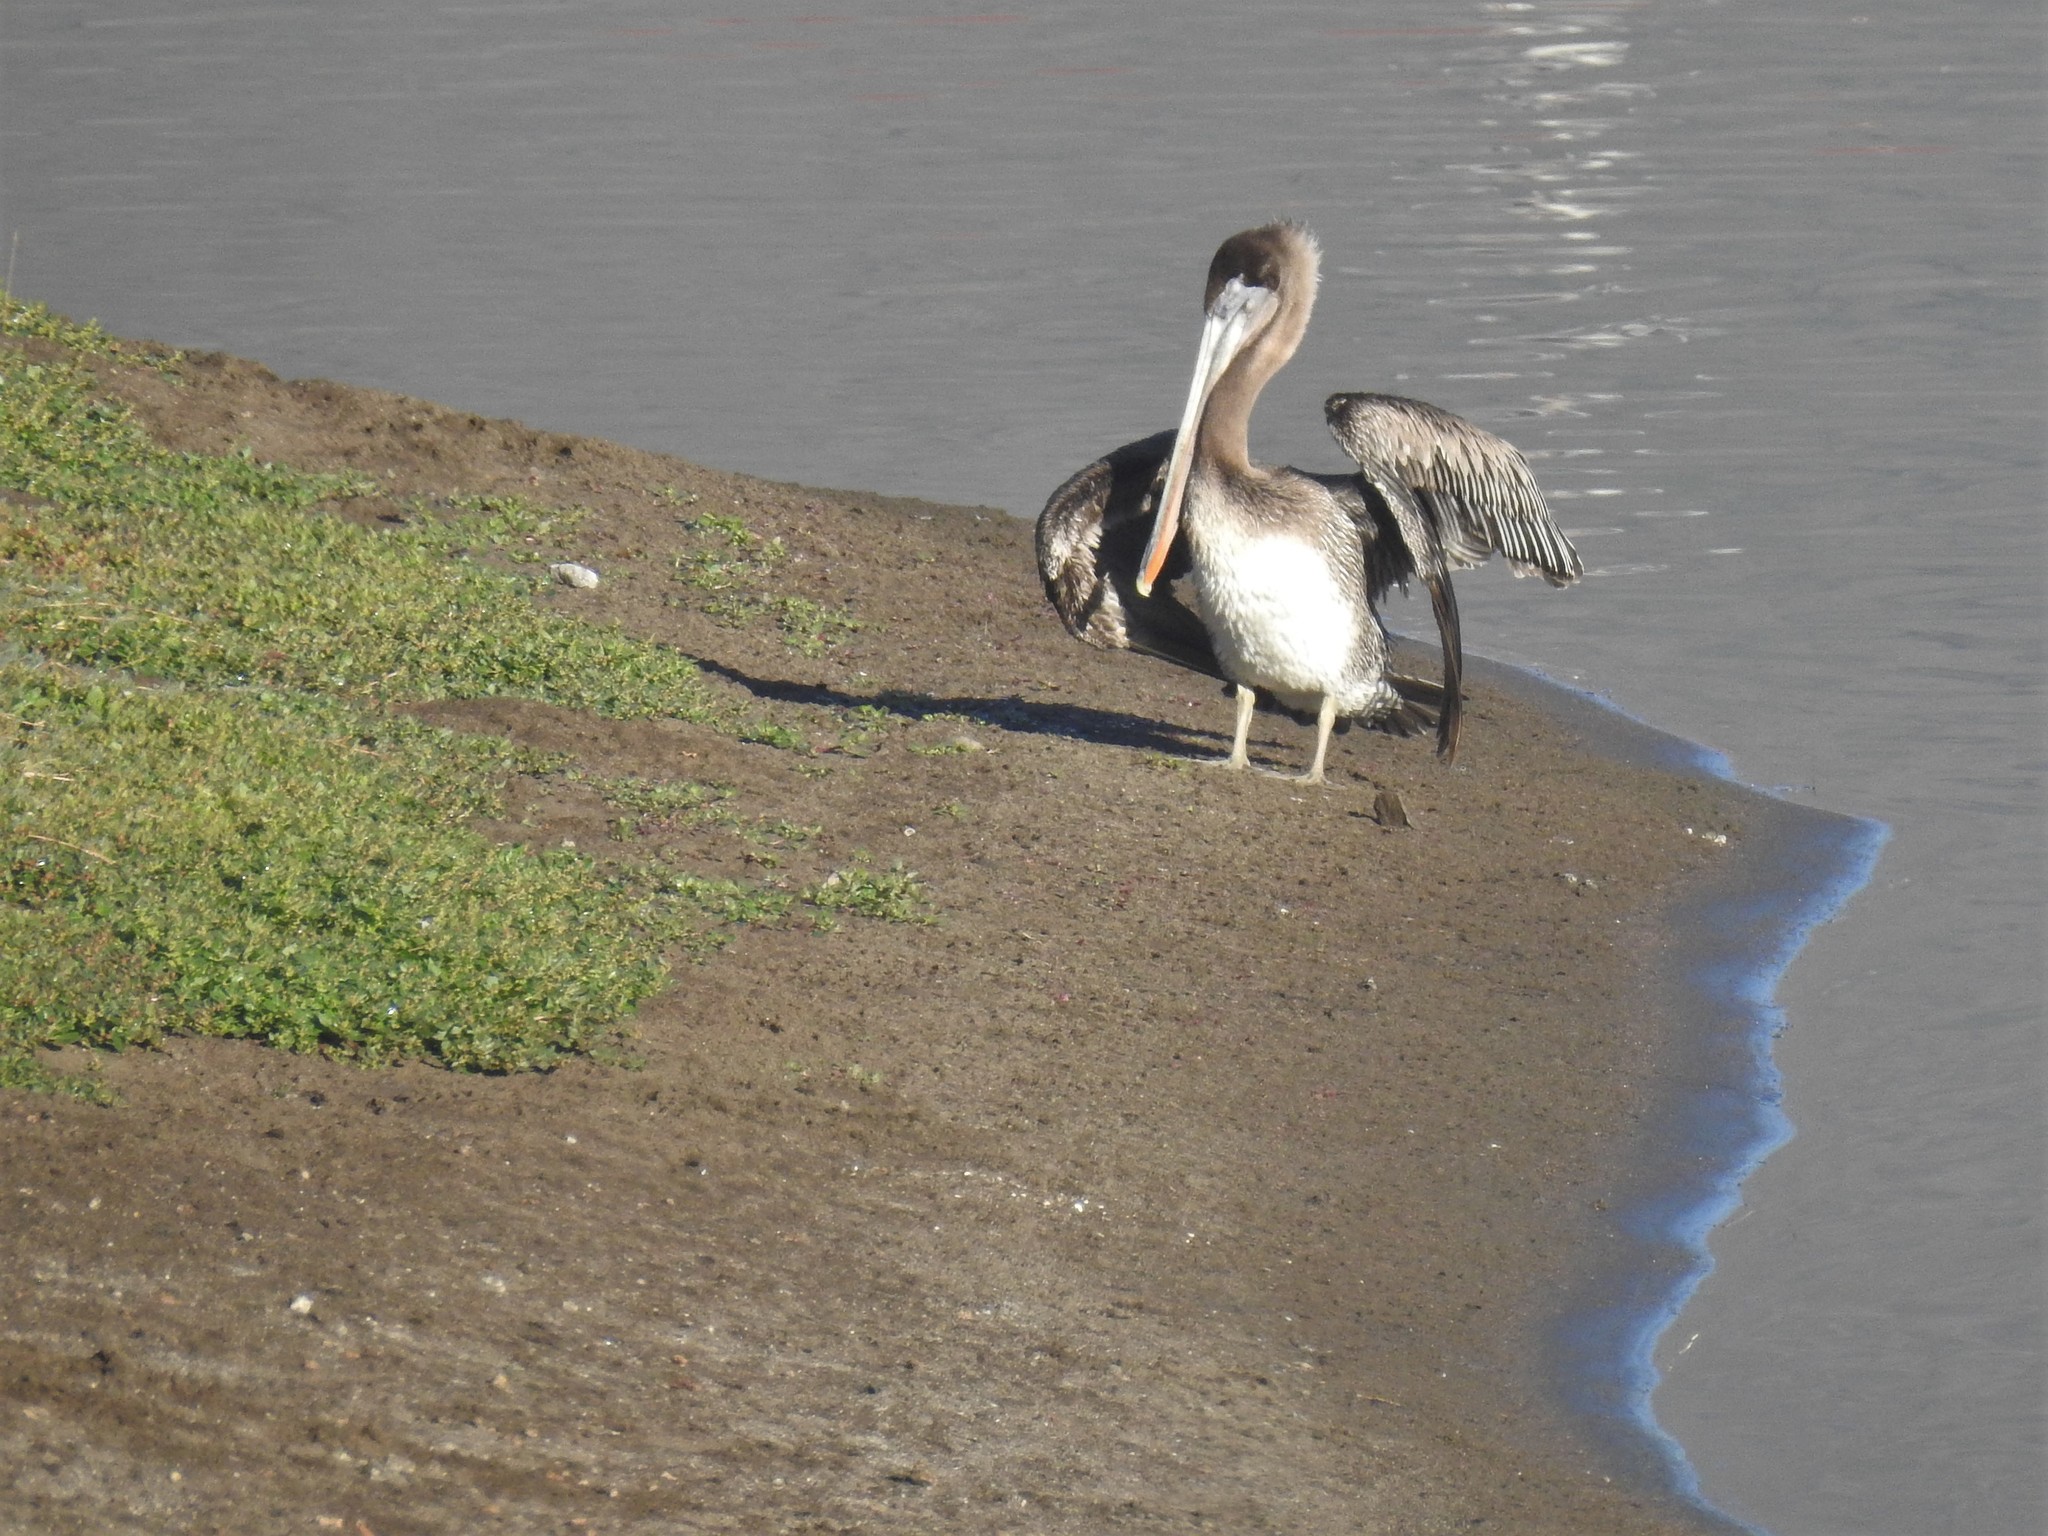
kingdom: Animalia
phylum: Chordata
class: Aves
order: Pelecaniformes
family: Pelecanidae
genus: Pelecanus
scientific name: Pelecanus occidentalis
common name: Brown pelican
